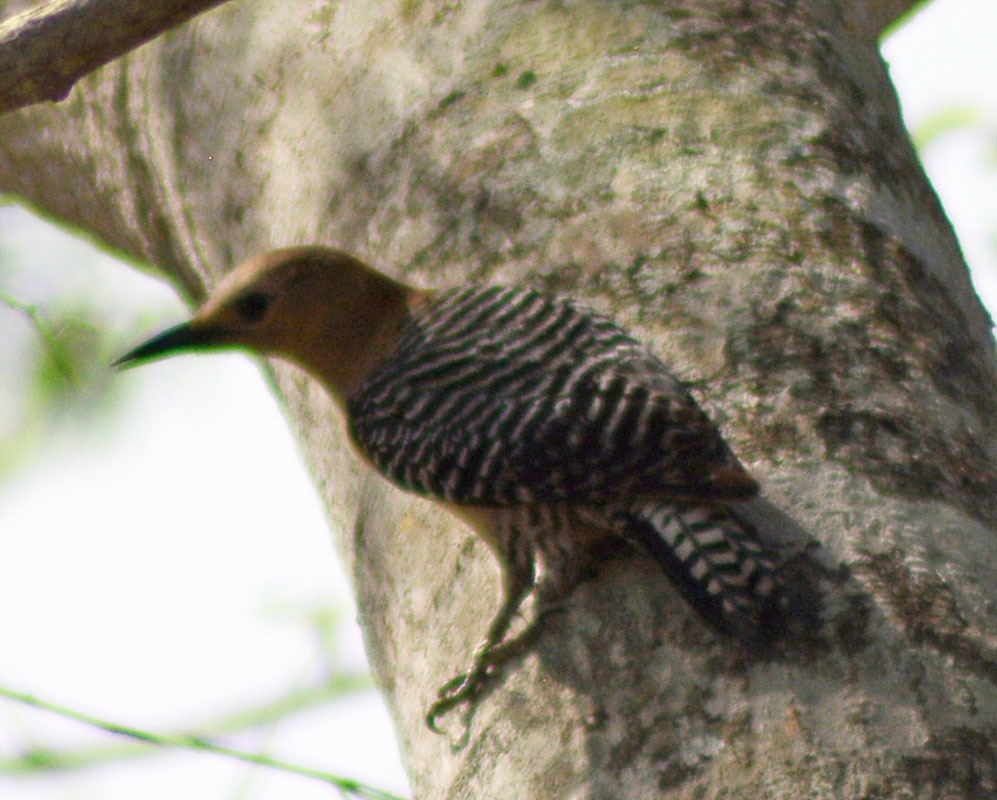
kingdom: Animalia
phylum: Chordata
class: Aves
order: Piciformes
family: Picidae
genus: Melanerpes
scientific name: Melanerpes uropygialis
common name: Gila woodpecker
